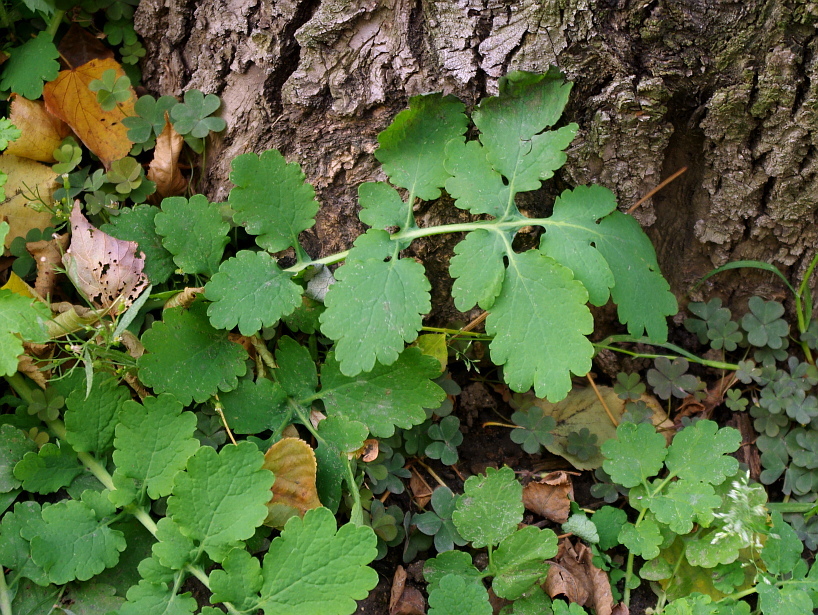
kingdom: Plantae
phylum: Tracheophyta
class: Magnoliopsida
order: Ranunculales
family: Papaveraceae
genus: Chelidonium
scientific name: Chelidonium majus
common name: Greater celandine
